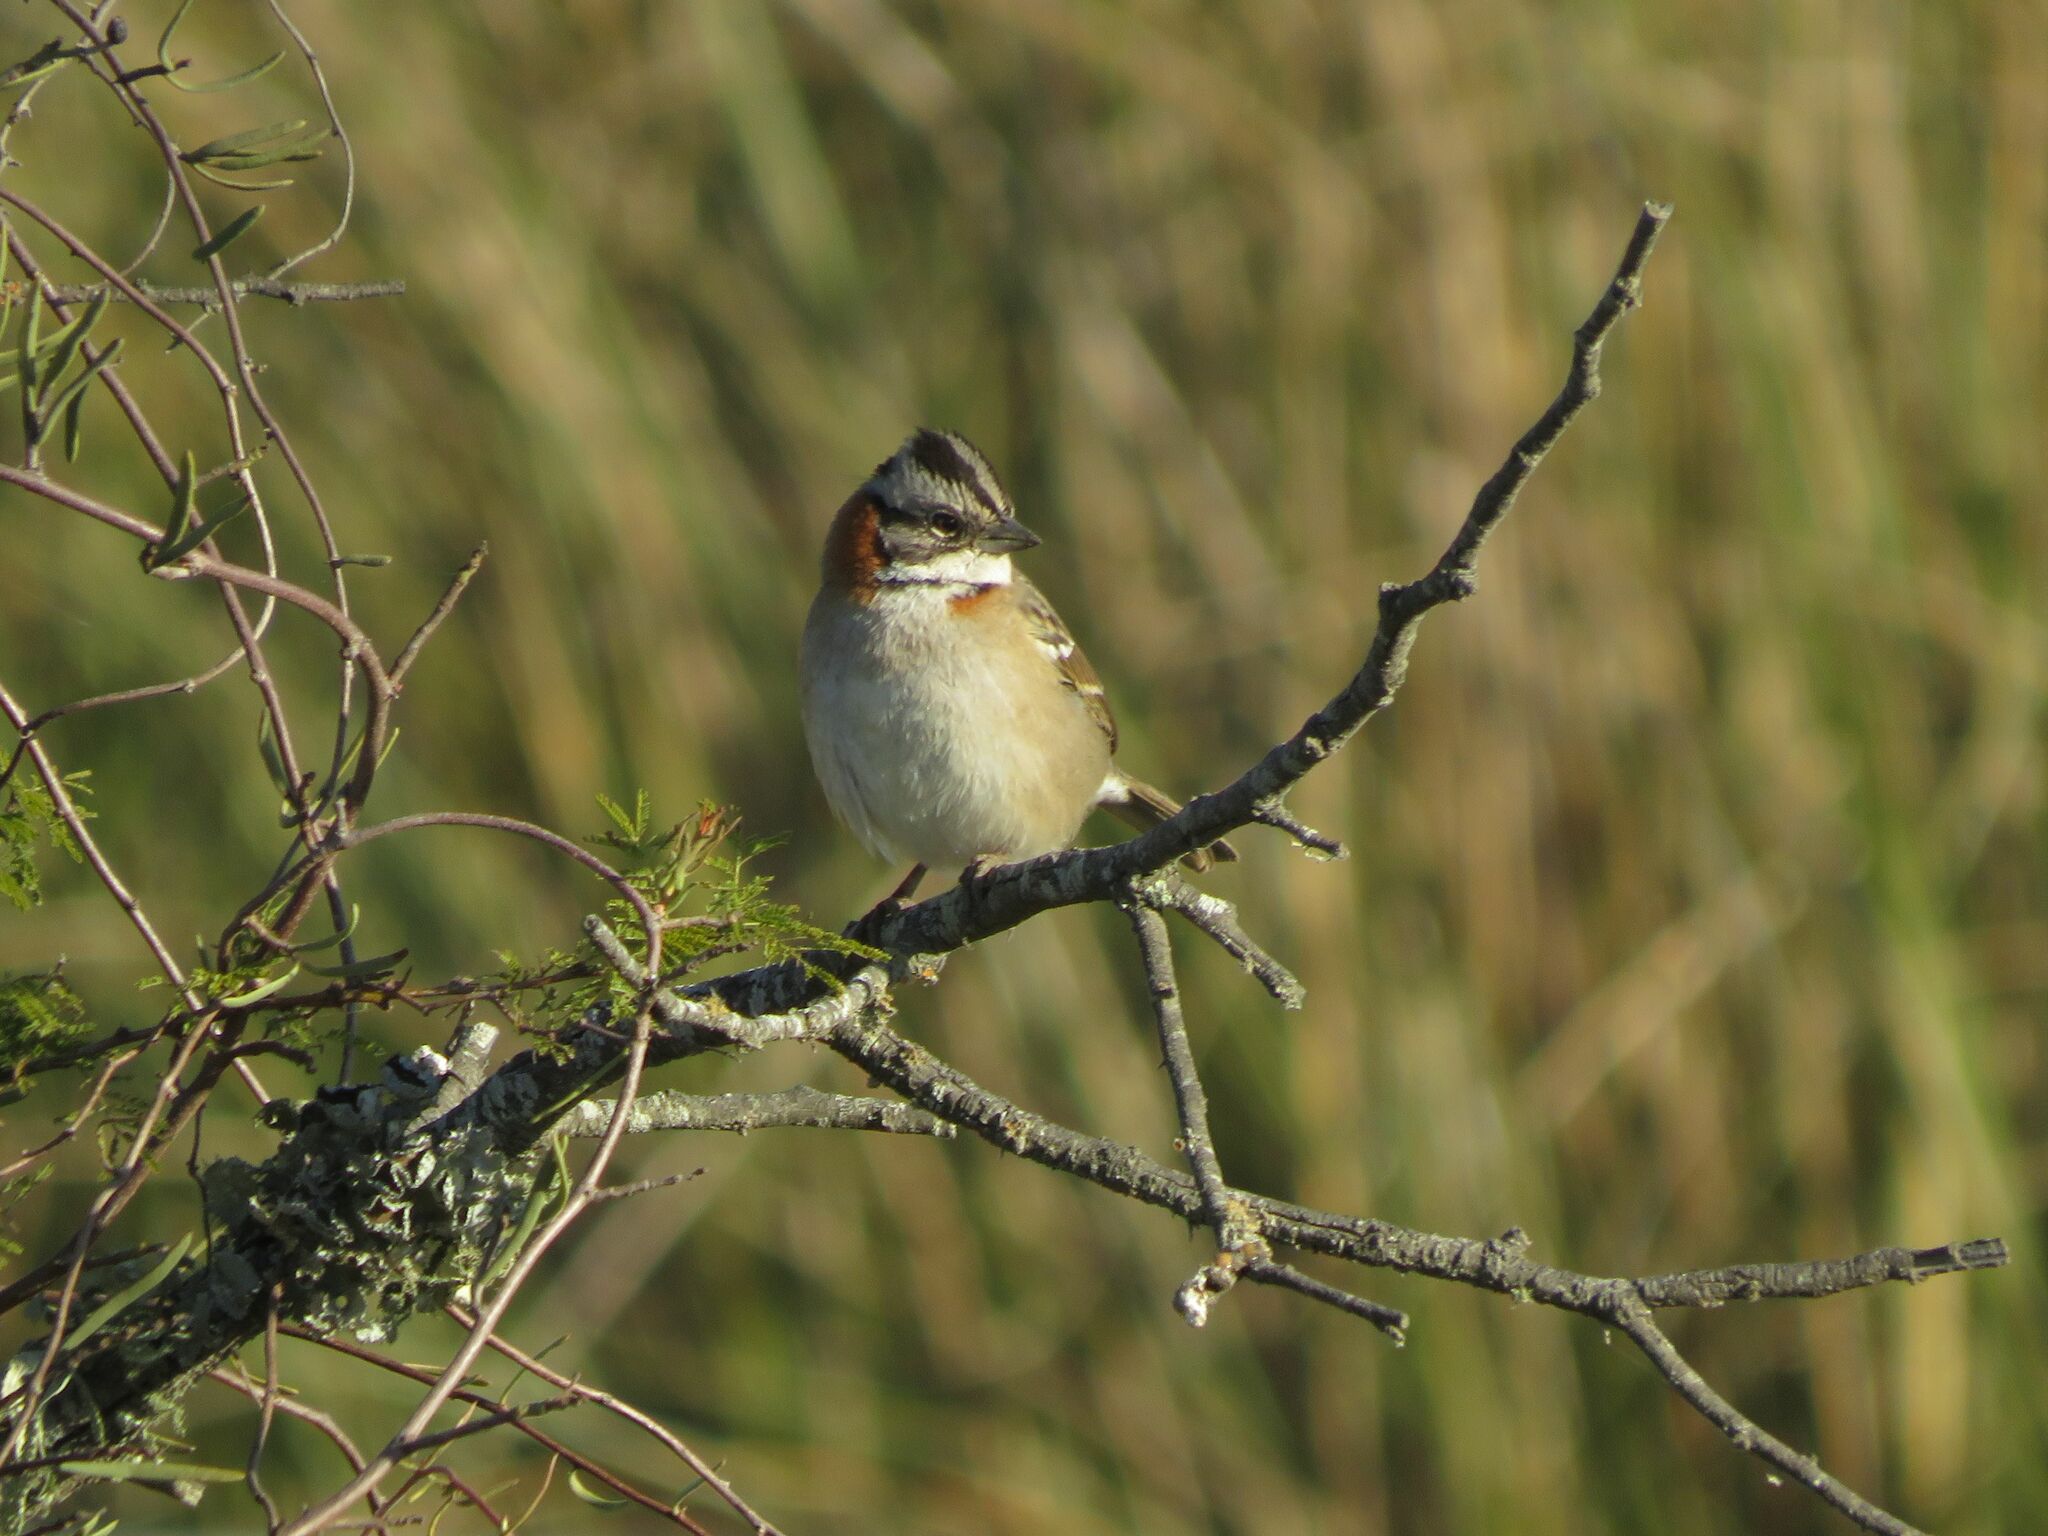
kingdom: Animalia
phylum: Chordata
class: Aves
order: Passeriformes
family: Passerellidae
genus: Zonotrichia
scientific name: Zonotrichia capensis
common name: Rufous-collared sparrow
